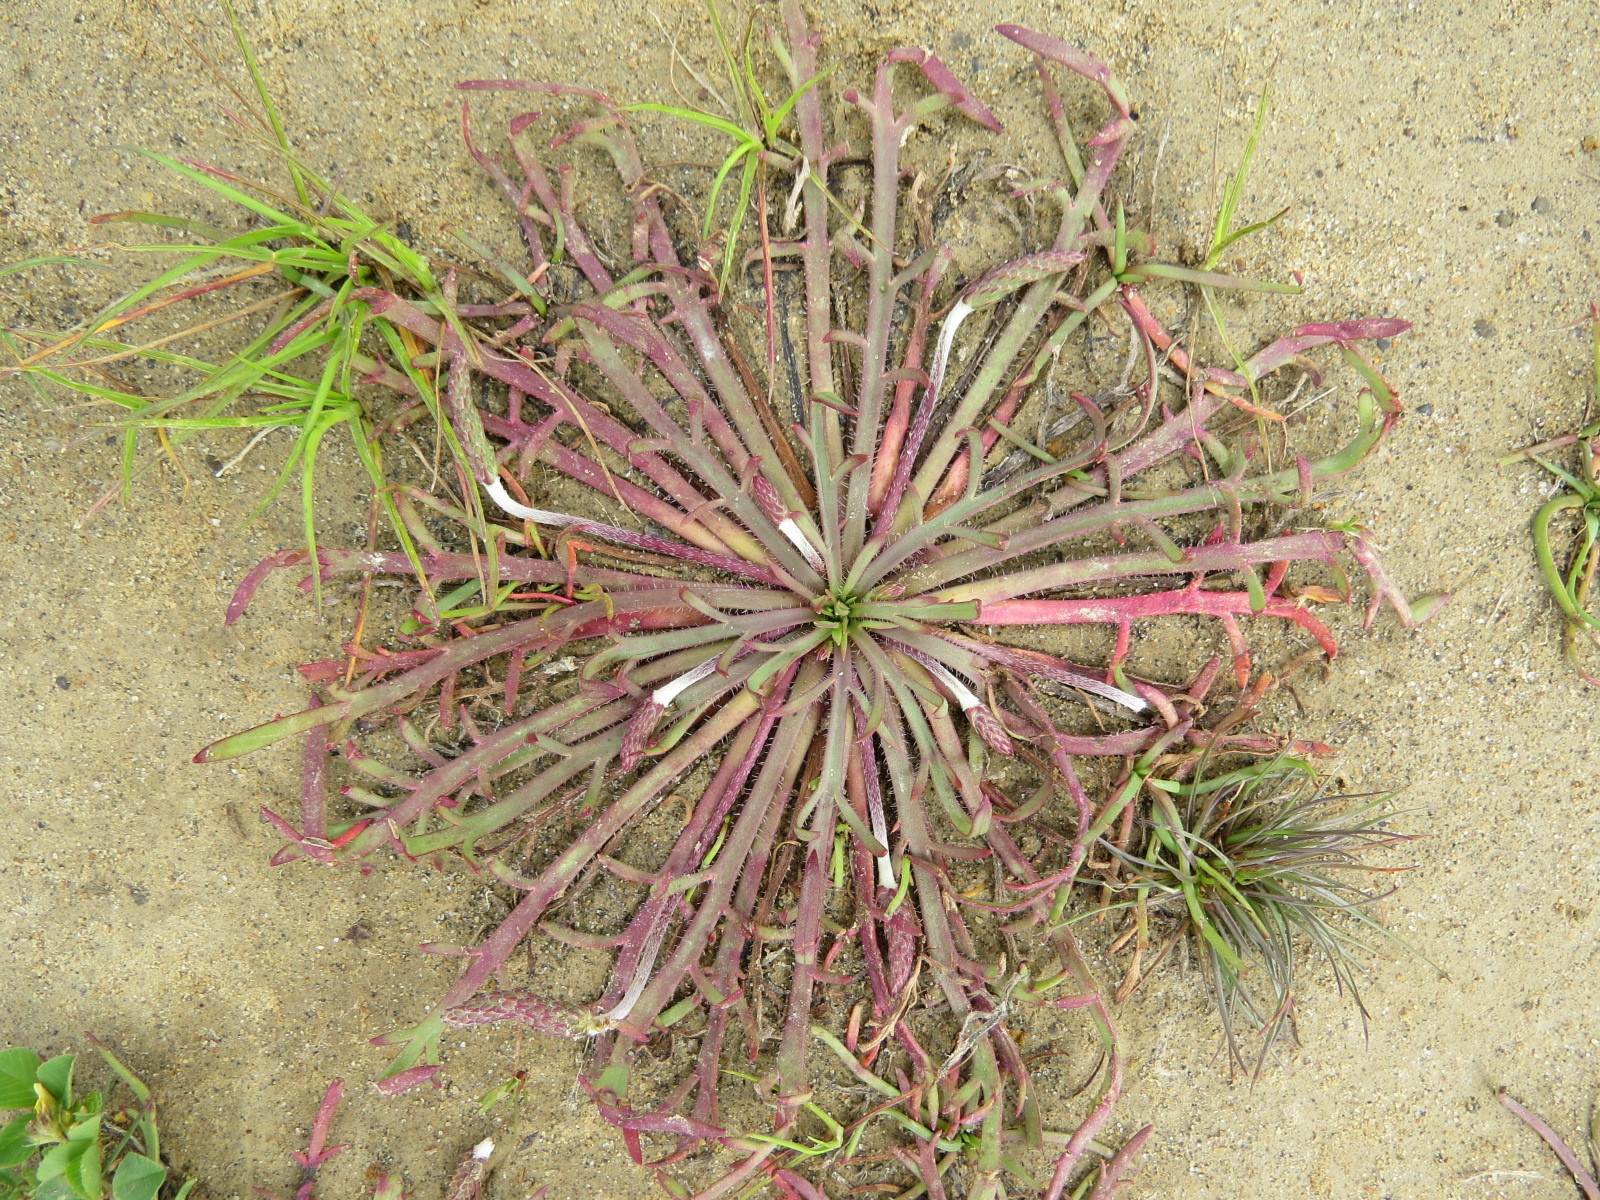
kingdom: Plantae
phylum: Tracheophyta
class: Magnoliopsida
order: Lamiales
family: Plantaginaceae
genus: Plantago
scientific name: Plantago coronopus
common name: Buck's-horn plantain
